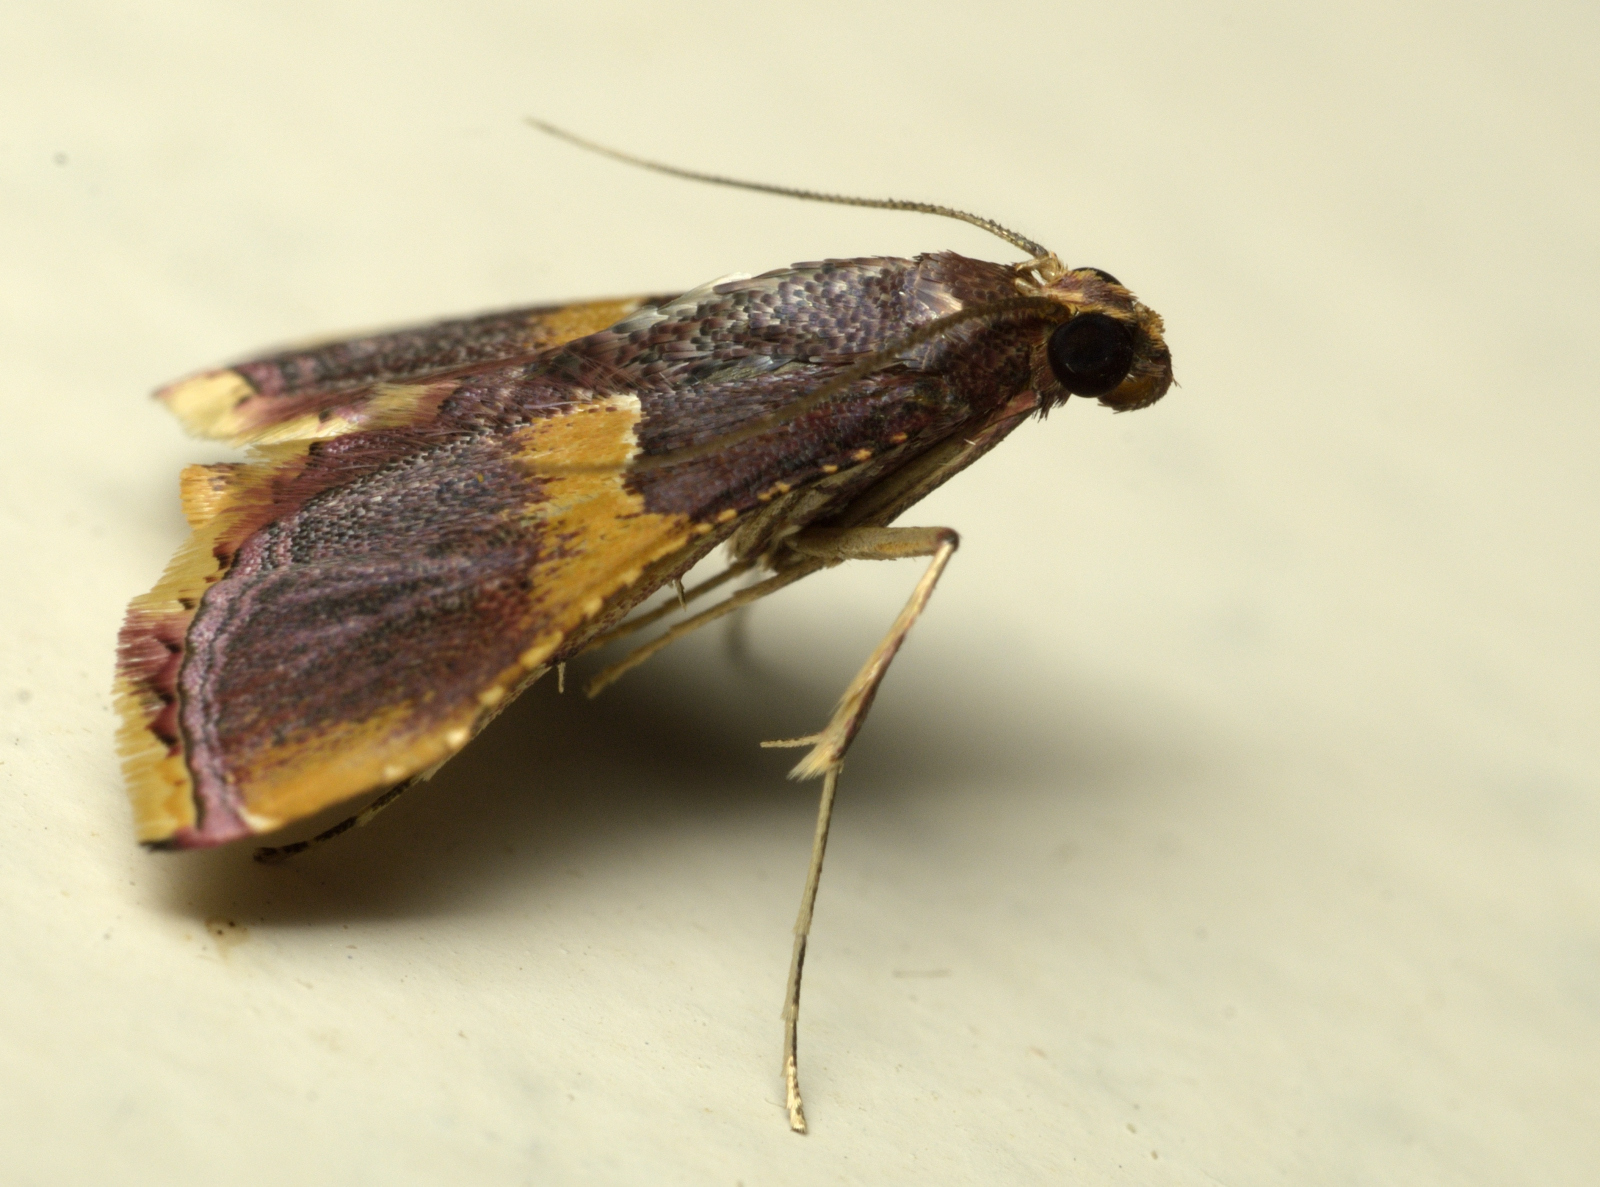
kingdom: Animalia
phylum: Arthropoda
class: Insecta
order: Lepidoptera
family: Pyralidae
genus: Endotricha
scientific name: Endotricha mesenterialis
